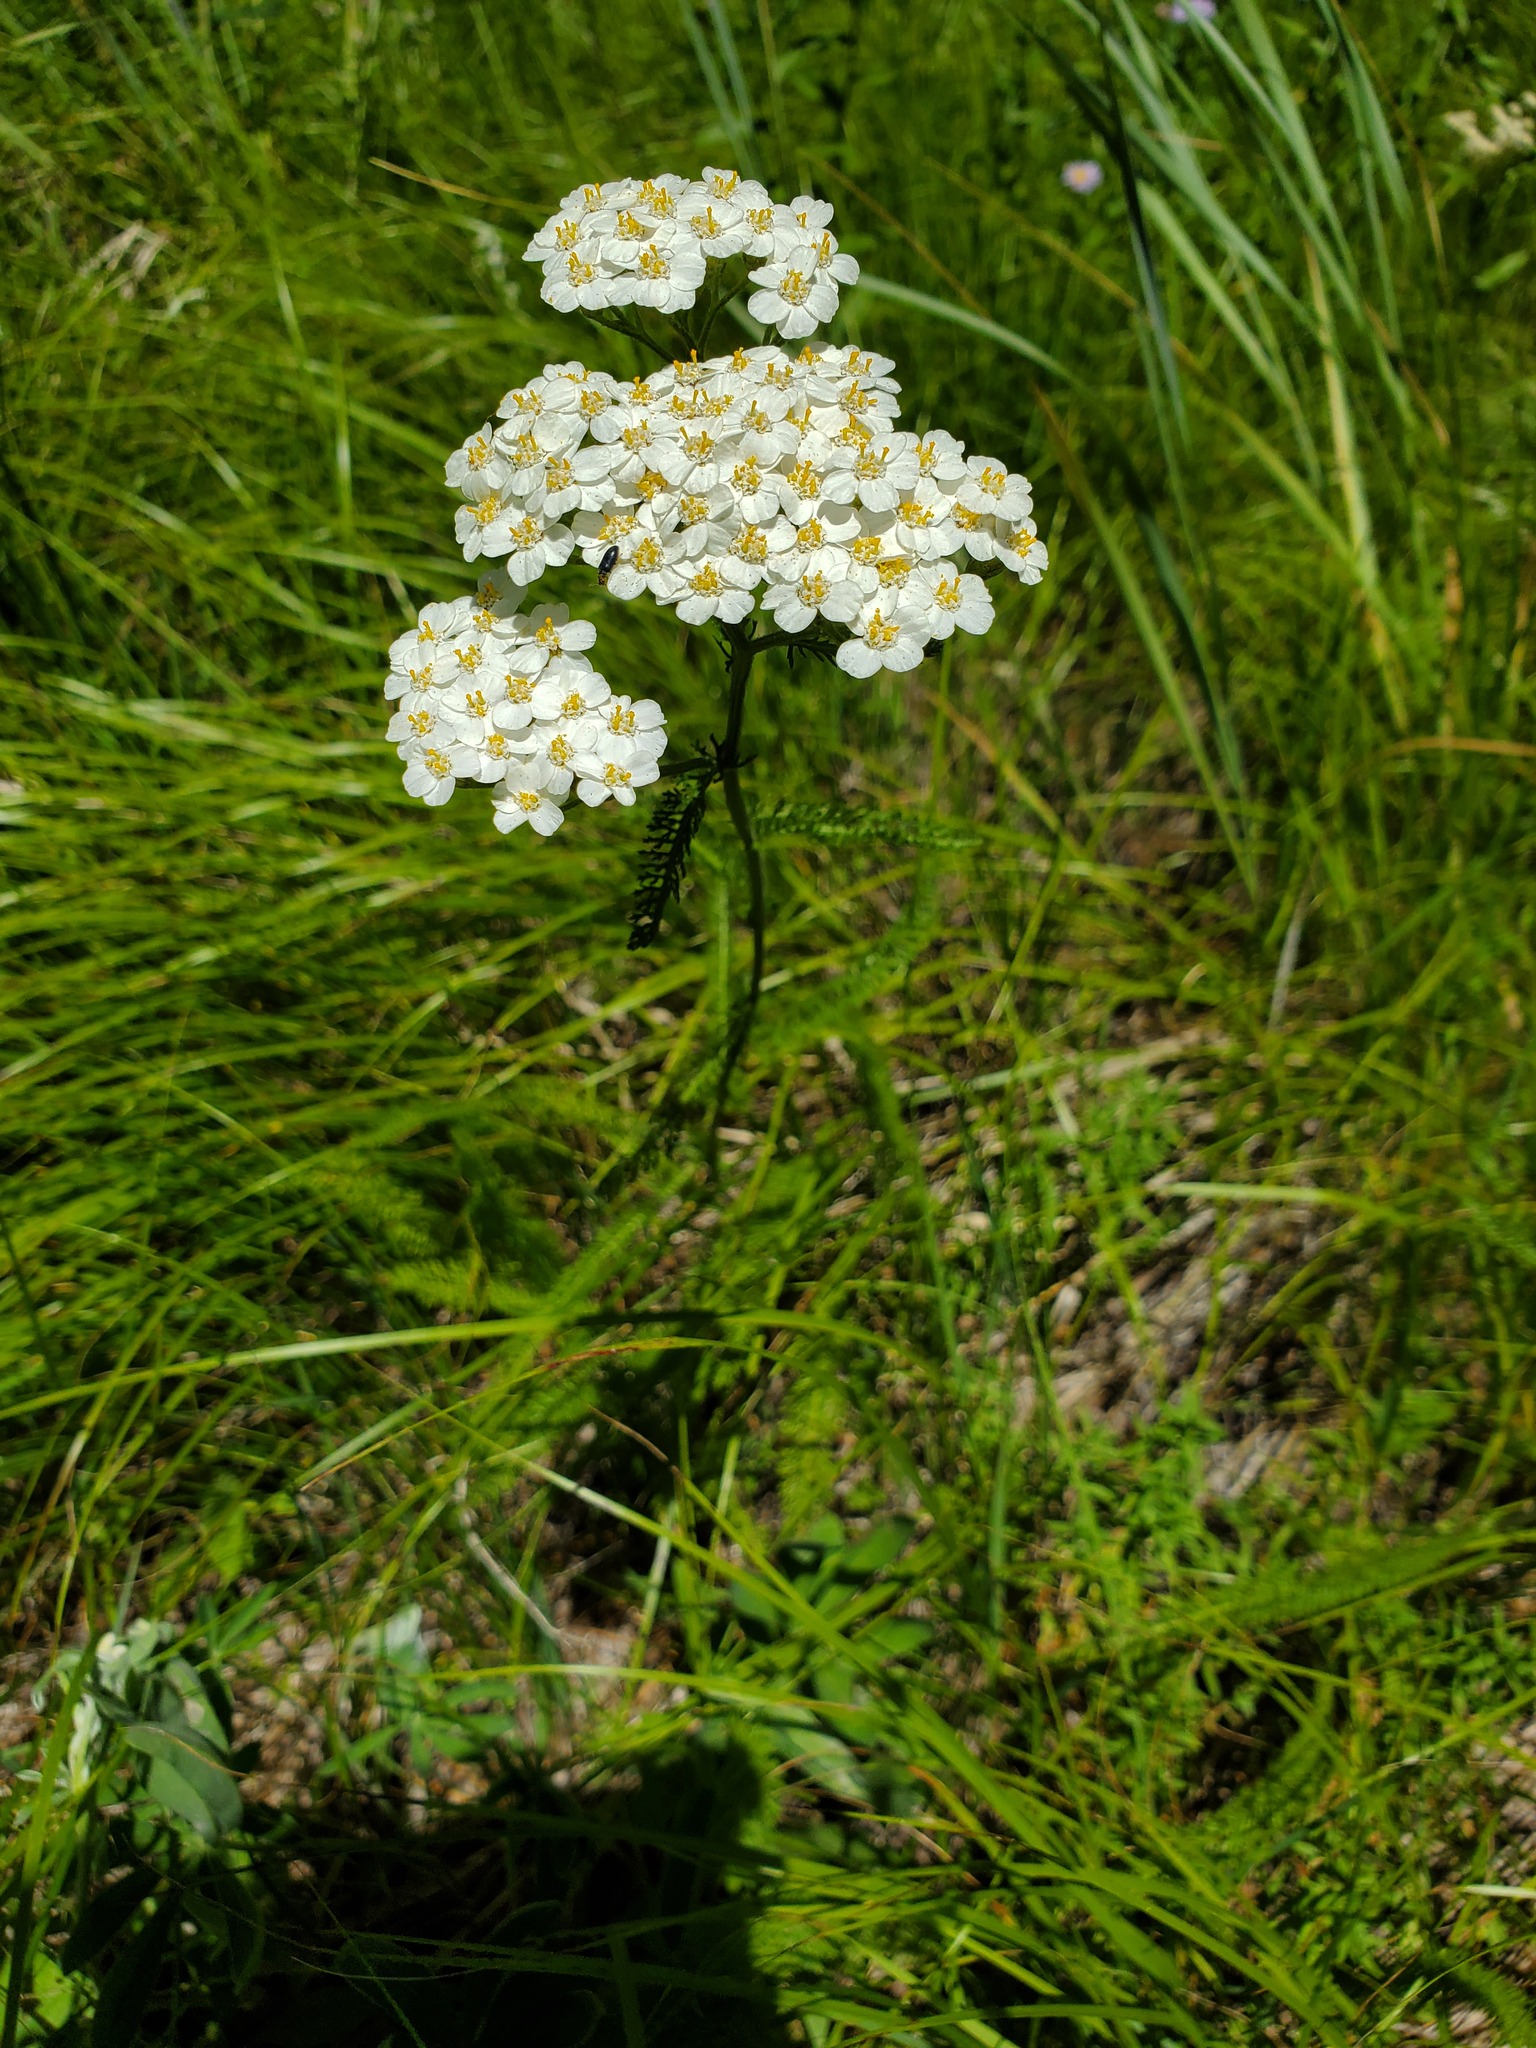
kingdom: Plantae
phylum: Tracheophyta
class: Magnoliopsida
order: Asterales
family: Asteraceae
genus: Achillea
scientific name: Achillea millefolium
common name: Yarrow
